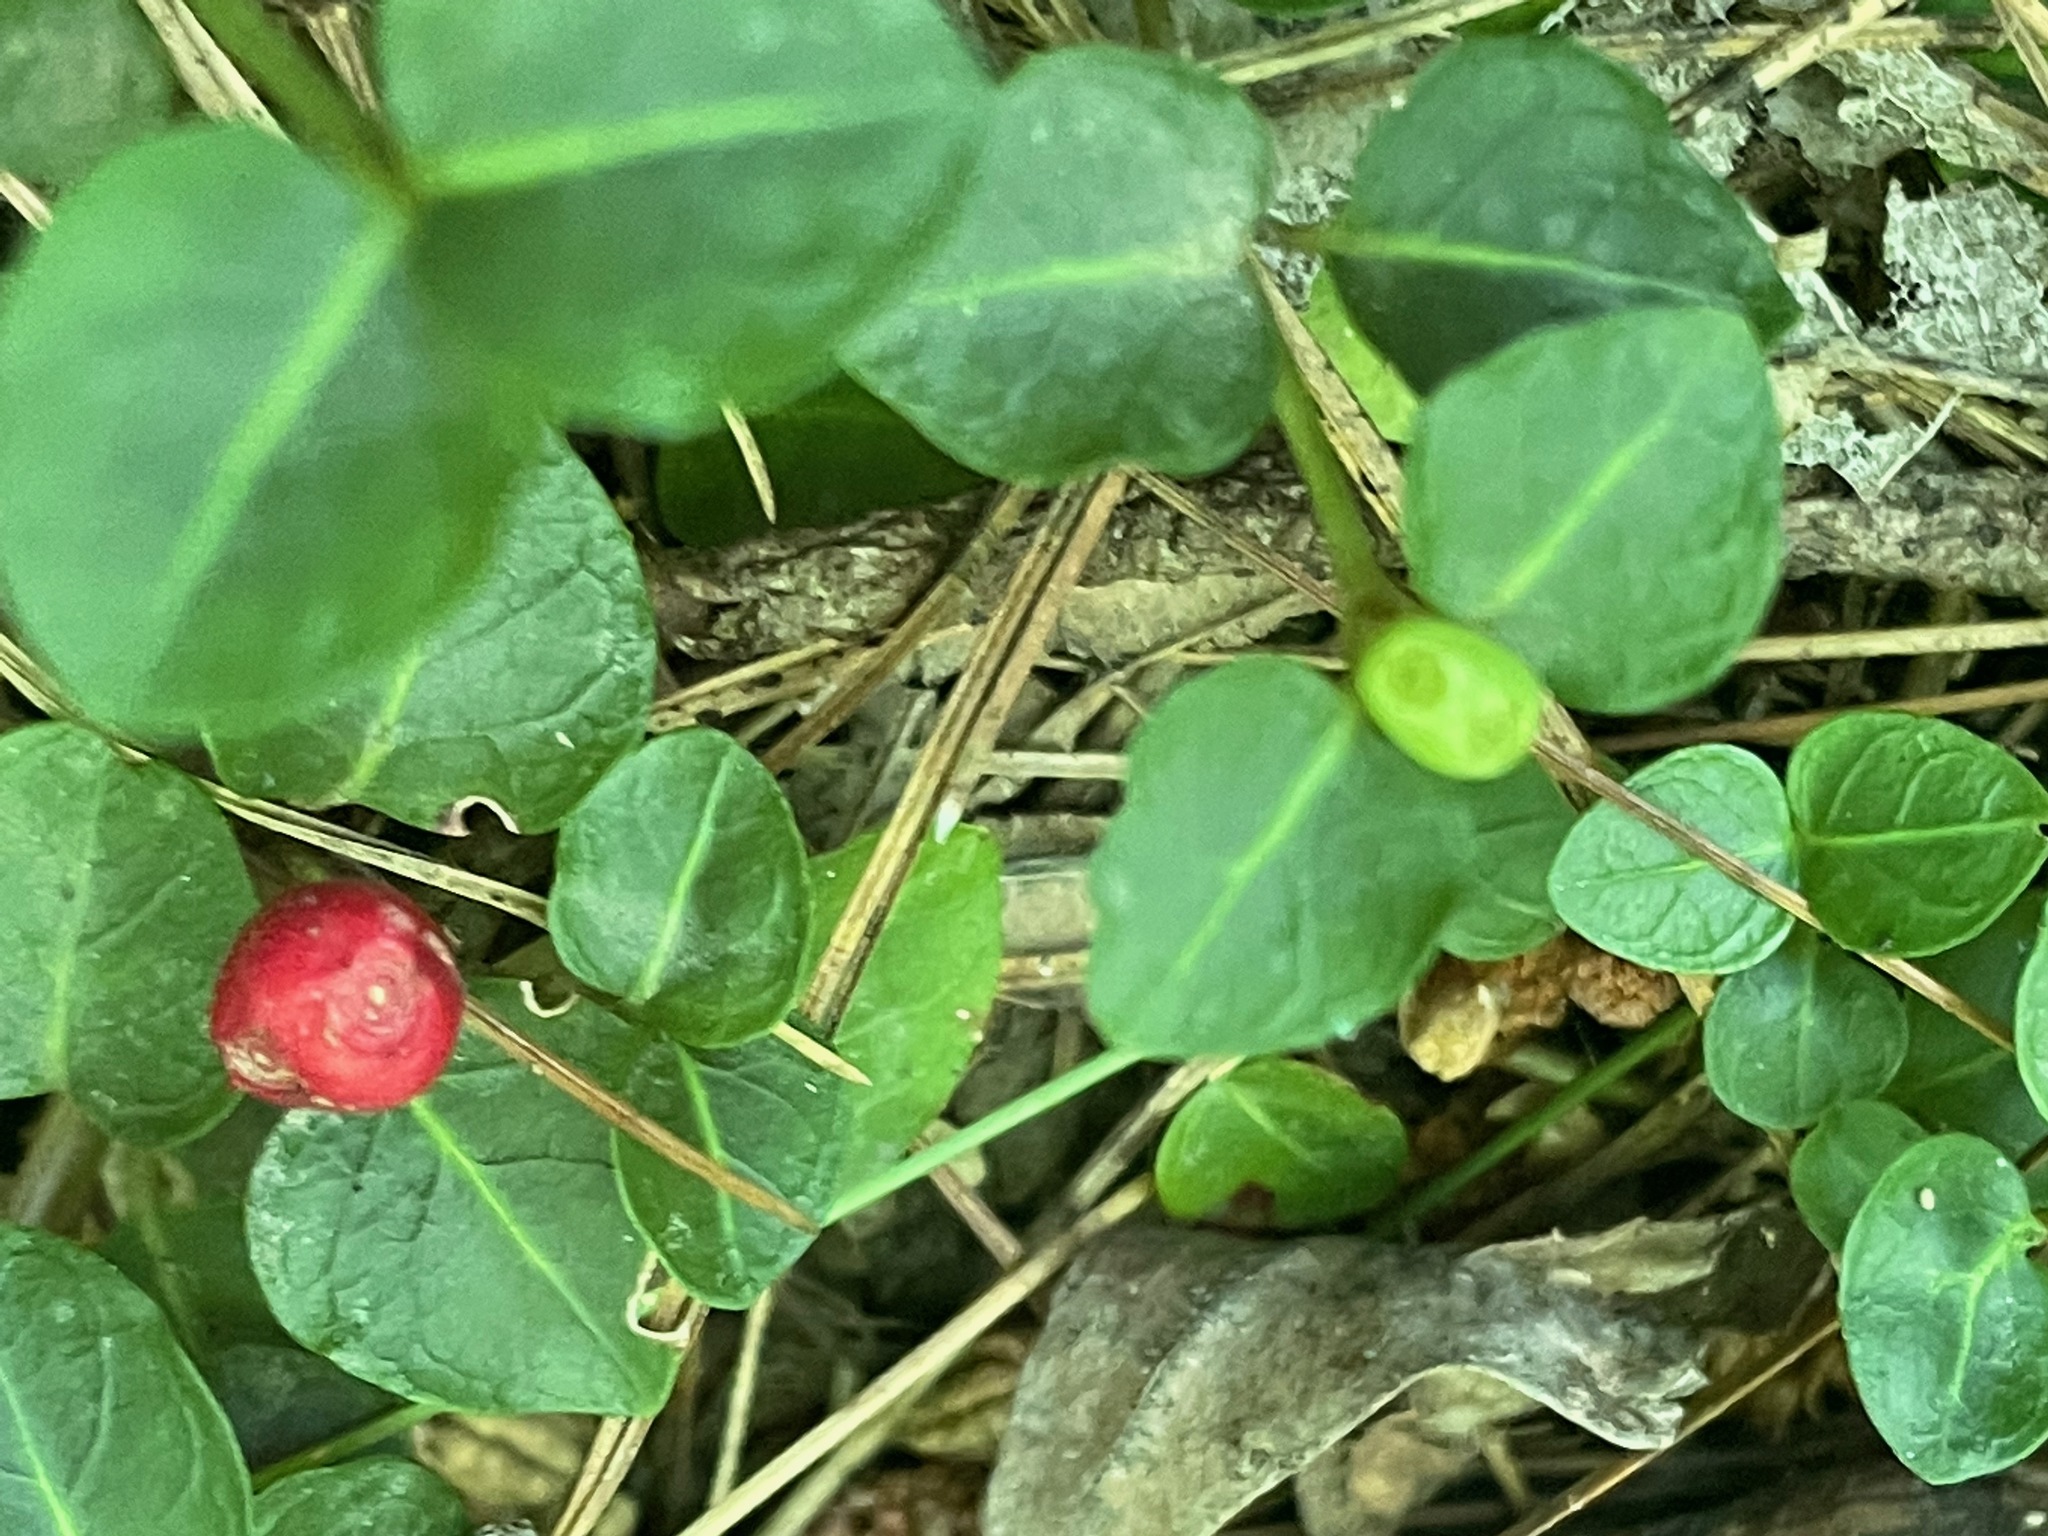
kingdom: Plantae
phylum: Tracheophyta
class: Magnoliopsida
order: Gentianales
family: Rubiaceae
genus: Mitchella
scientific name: Mitchella repens
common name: Partridge-berry
